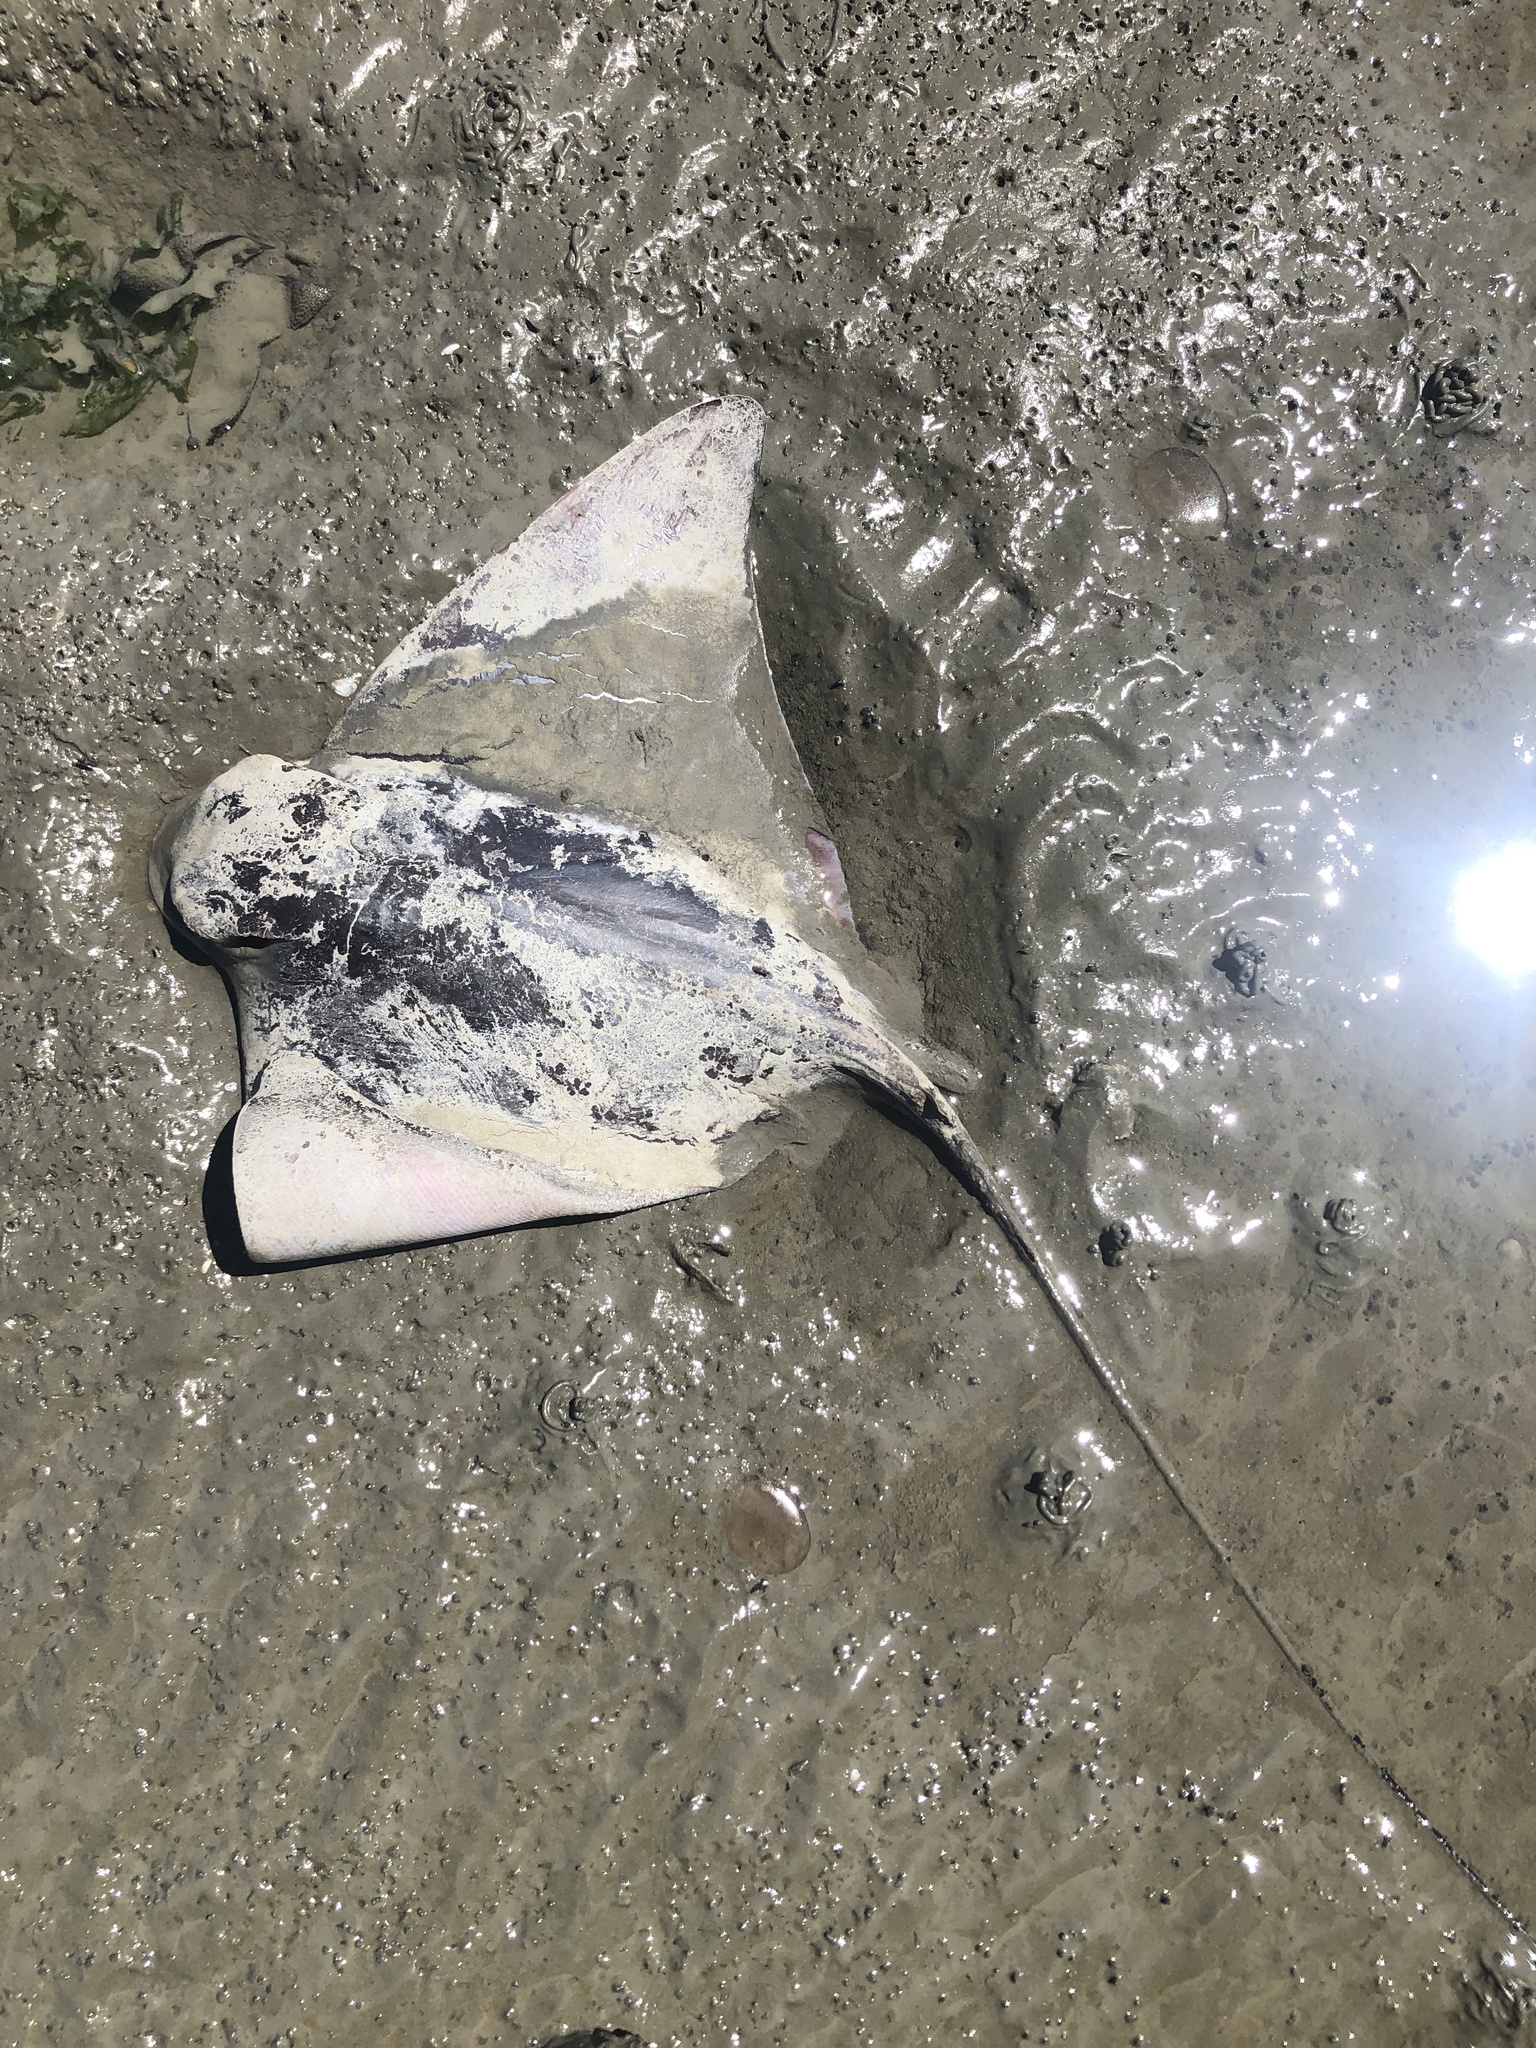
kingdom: Animalia
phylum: Chordata
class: Elasmobranchii
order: Myliobatiformes
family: Myliobatidae
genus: Myliobatis
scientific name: Myliobatis californica
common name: Bat ray
